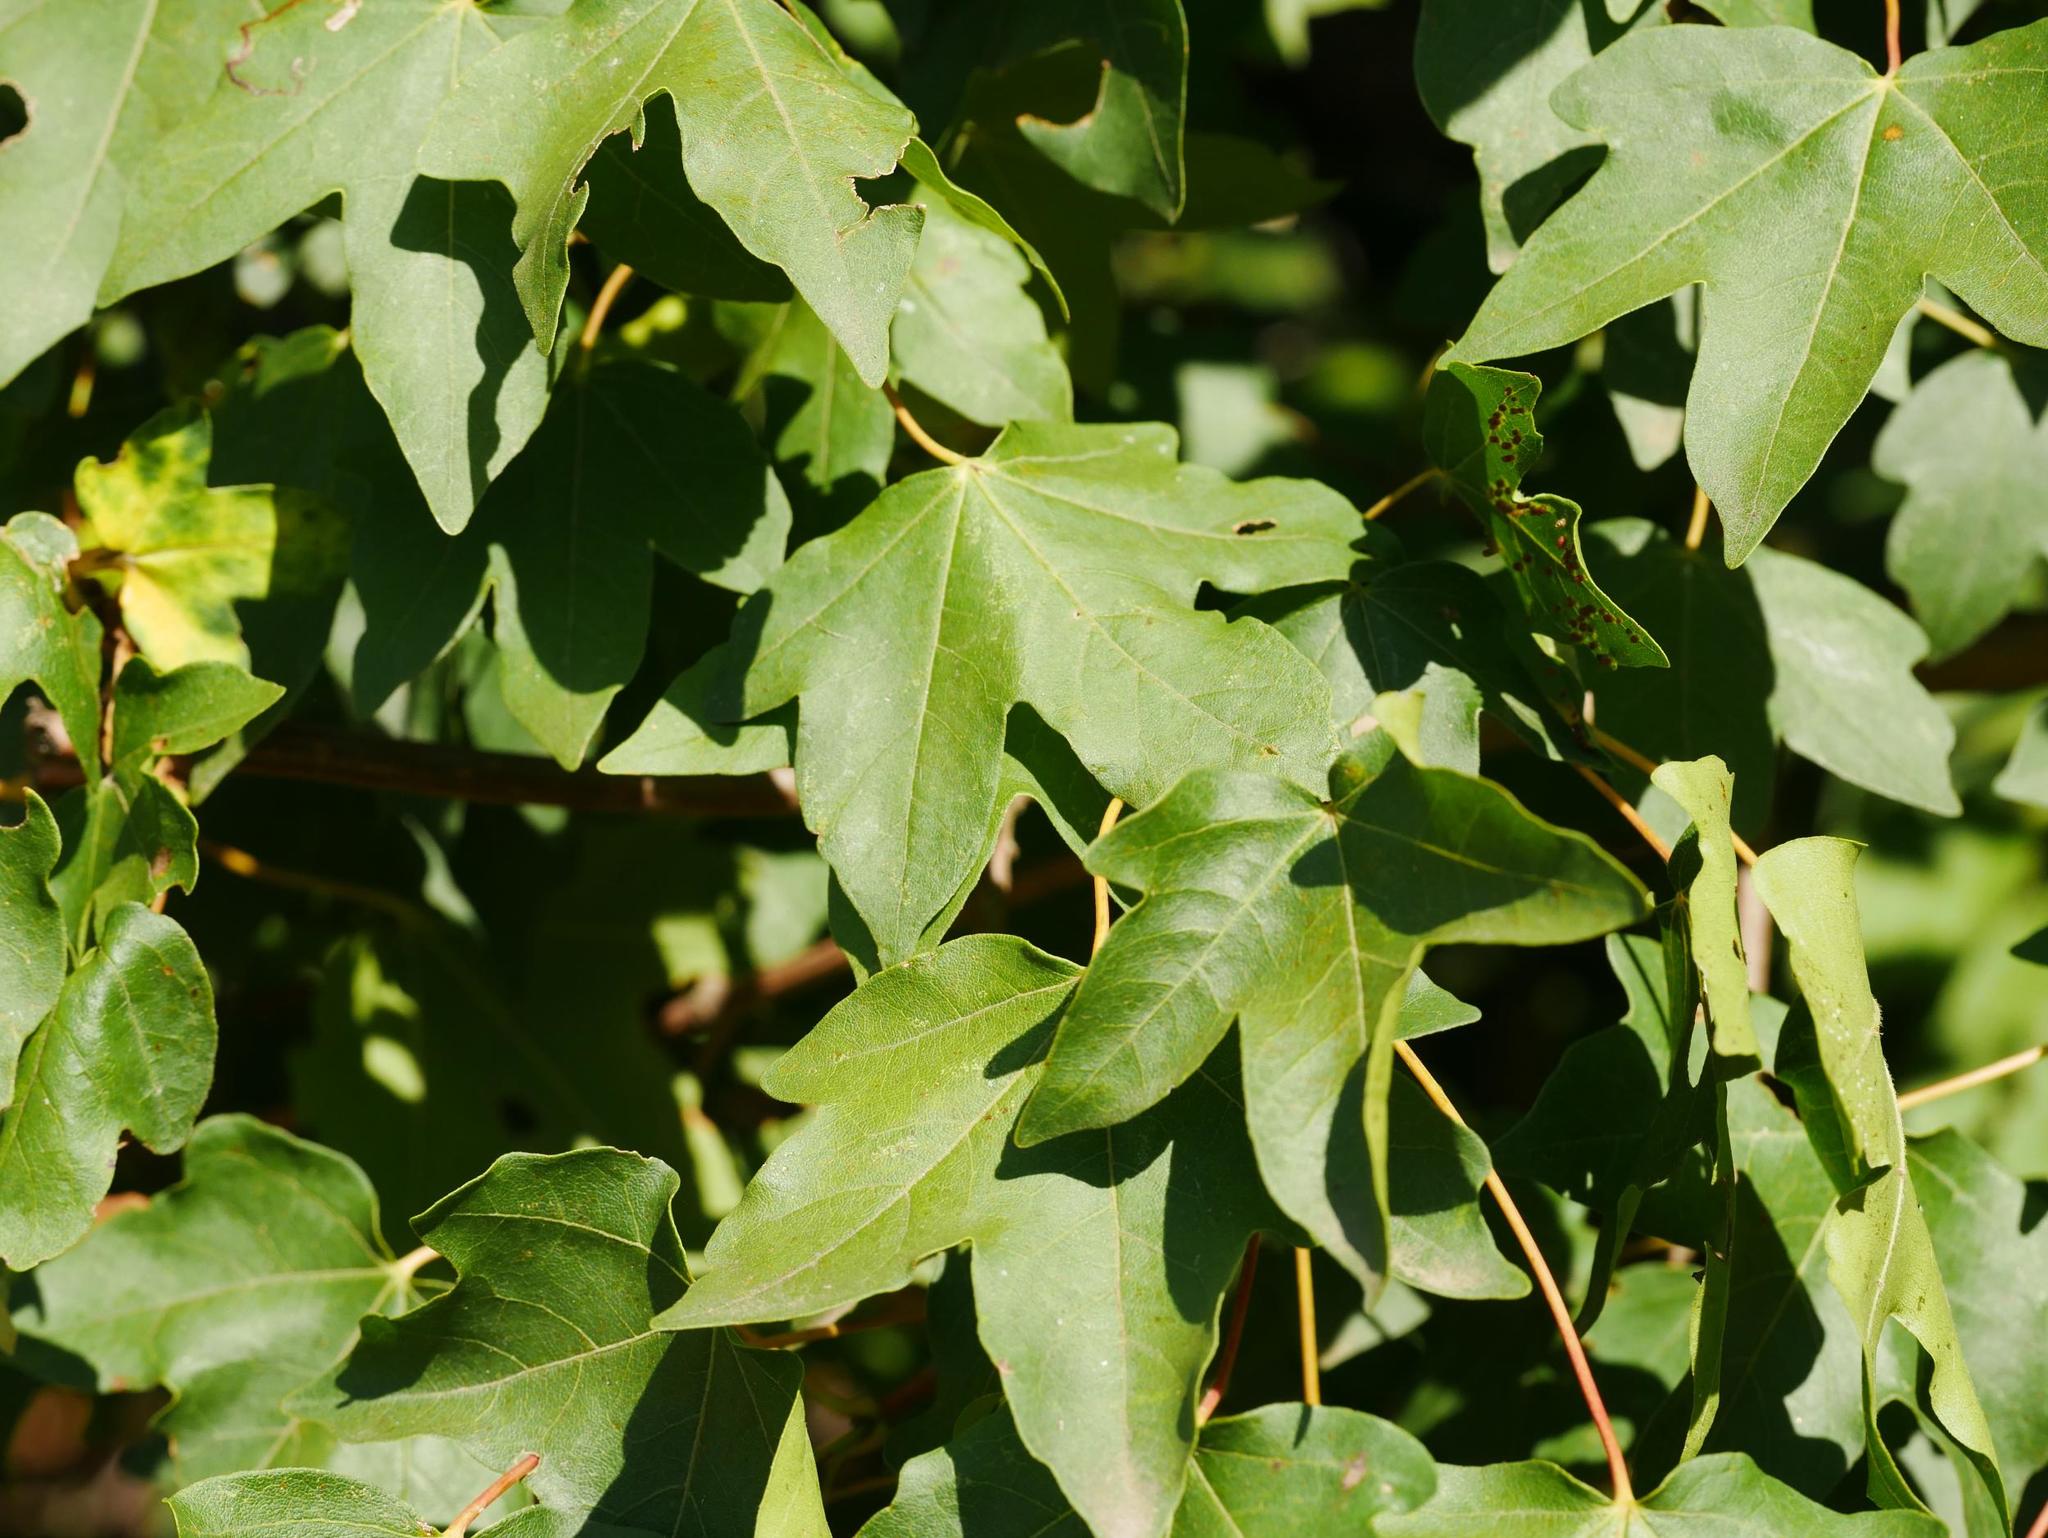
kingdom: Plantae
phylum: Tracheophyta
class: Magnoliopsida
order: Sapindales
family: Sapindaceae
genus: Acer
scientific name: Acer campestre
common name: Field maple
